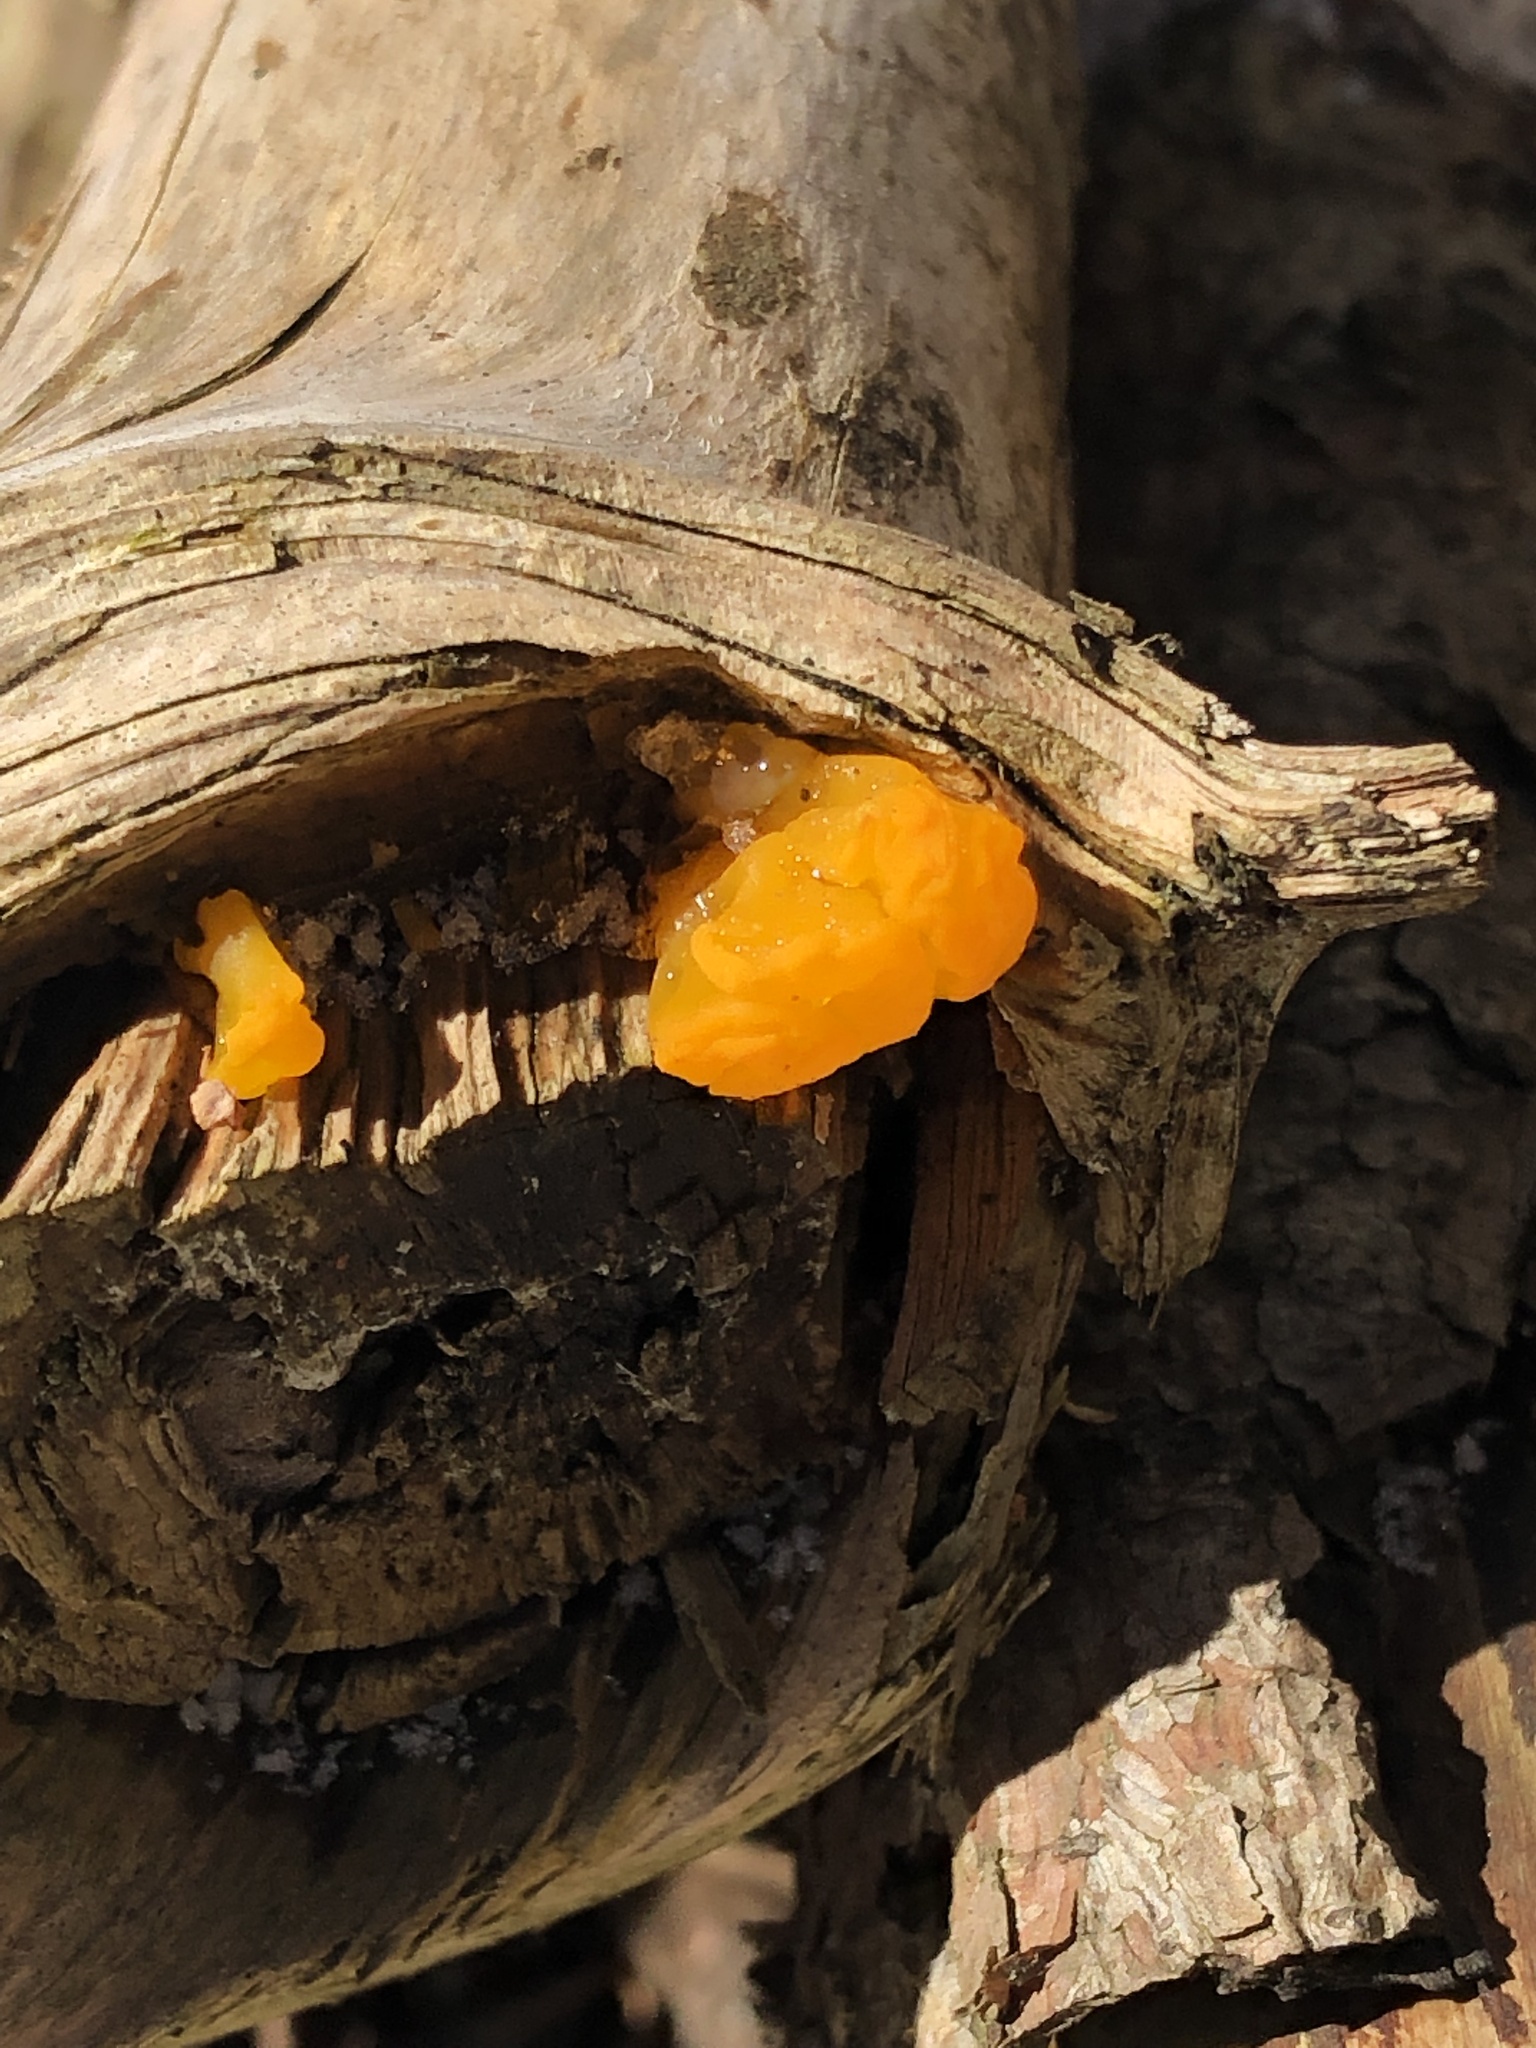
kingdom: Fungi
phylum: Basidiomycota
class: Dacrymycetes
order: Dacrymycetales
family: Dacrymycetaceae
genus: Dacrymyces
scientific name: Dacrymyces chrysospermus
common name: Orange jelly spot
